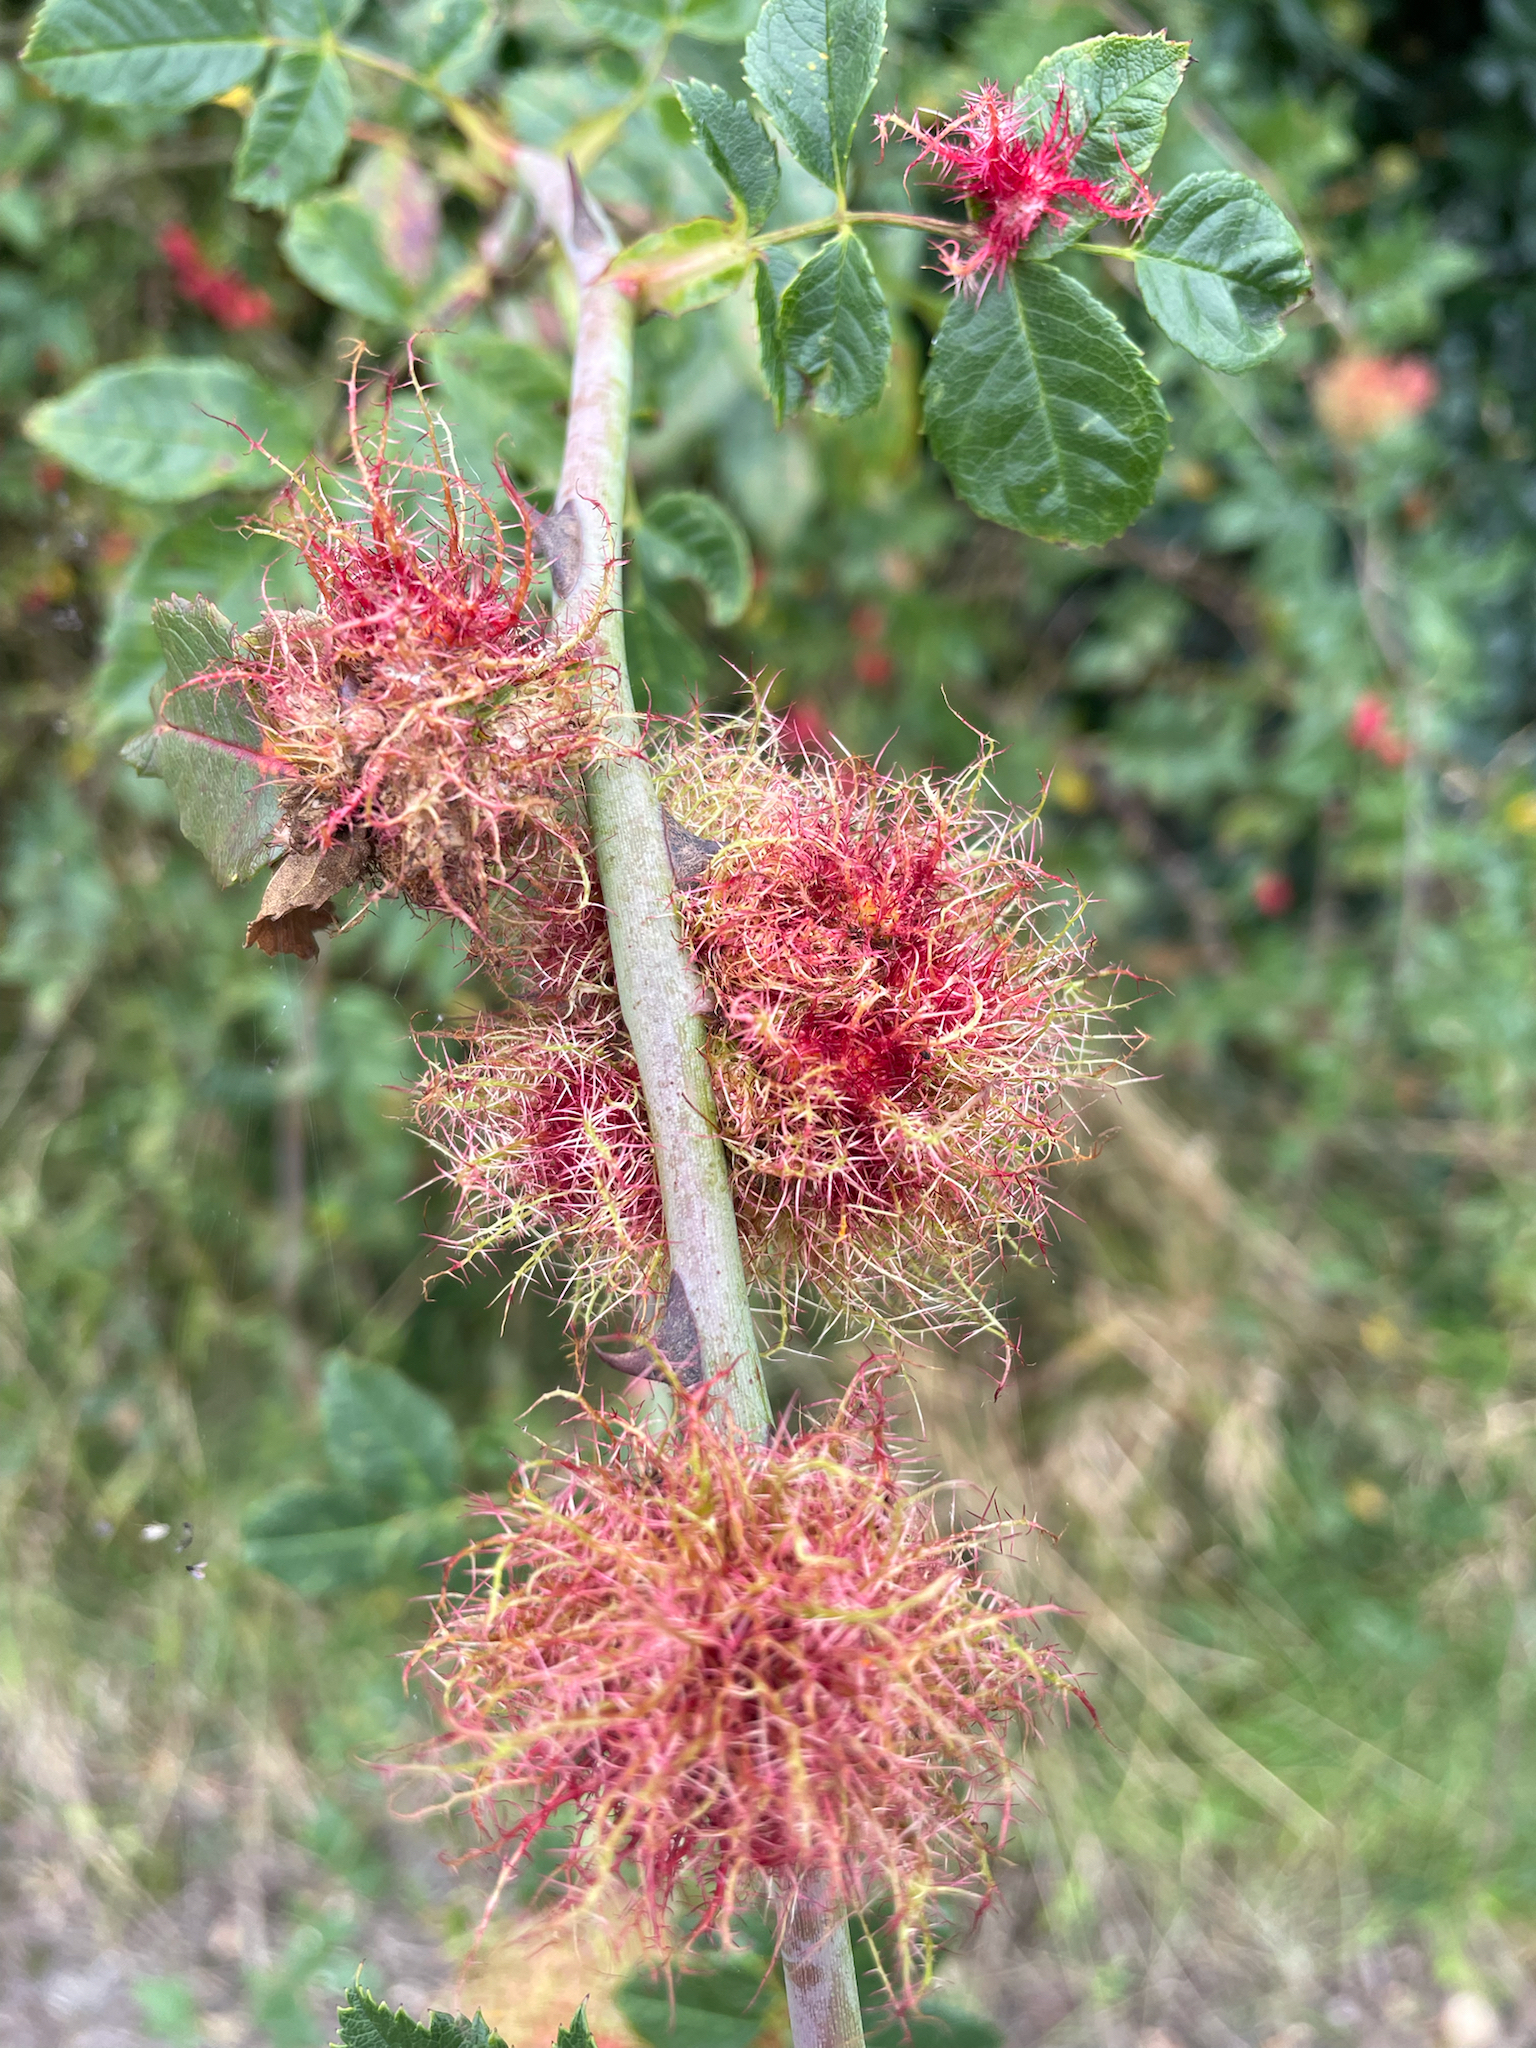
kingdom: Animalia
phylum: Arthropoda
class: Insecta
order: Hymenoptera
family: Cynipidae
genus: Diplolepis
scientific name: Diplolepis rosae
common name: Bedeguar gall
